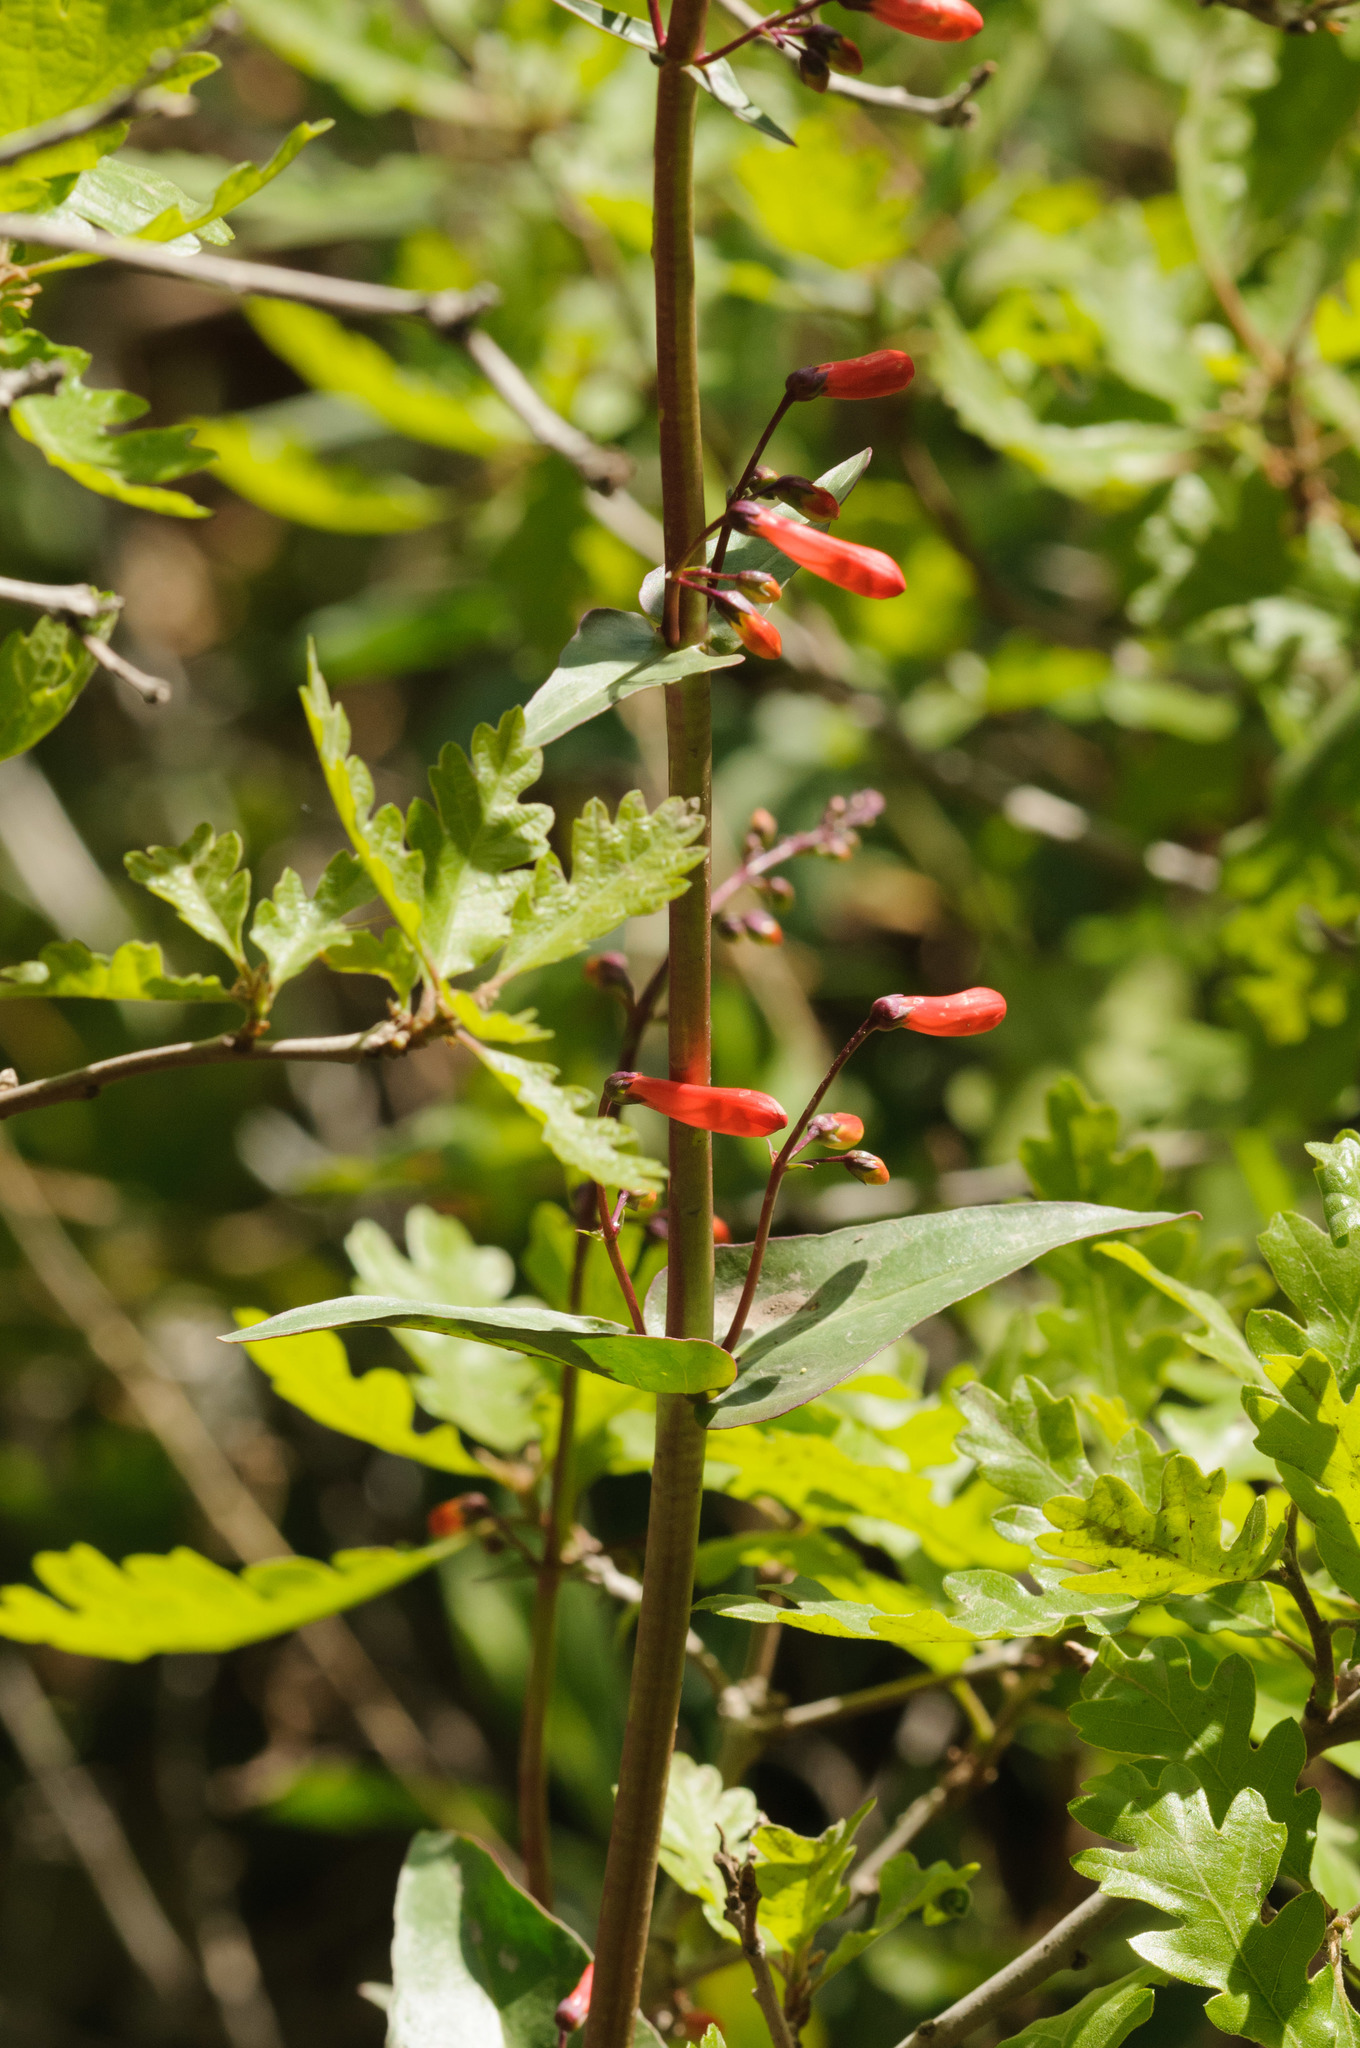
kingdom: Plantae
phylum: Tracheophyta
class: Magnoliopsida
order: Lamiales
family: Plantaginaceae
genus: Penstemon
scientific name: Penstemon eatonii
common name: Eaton's penstemon
